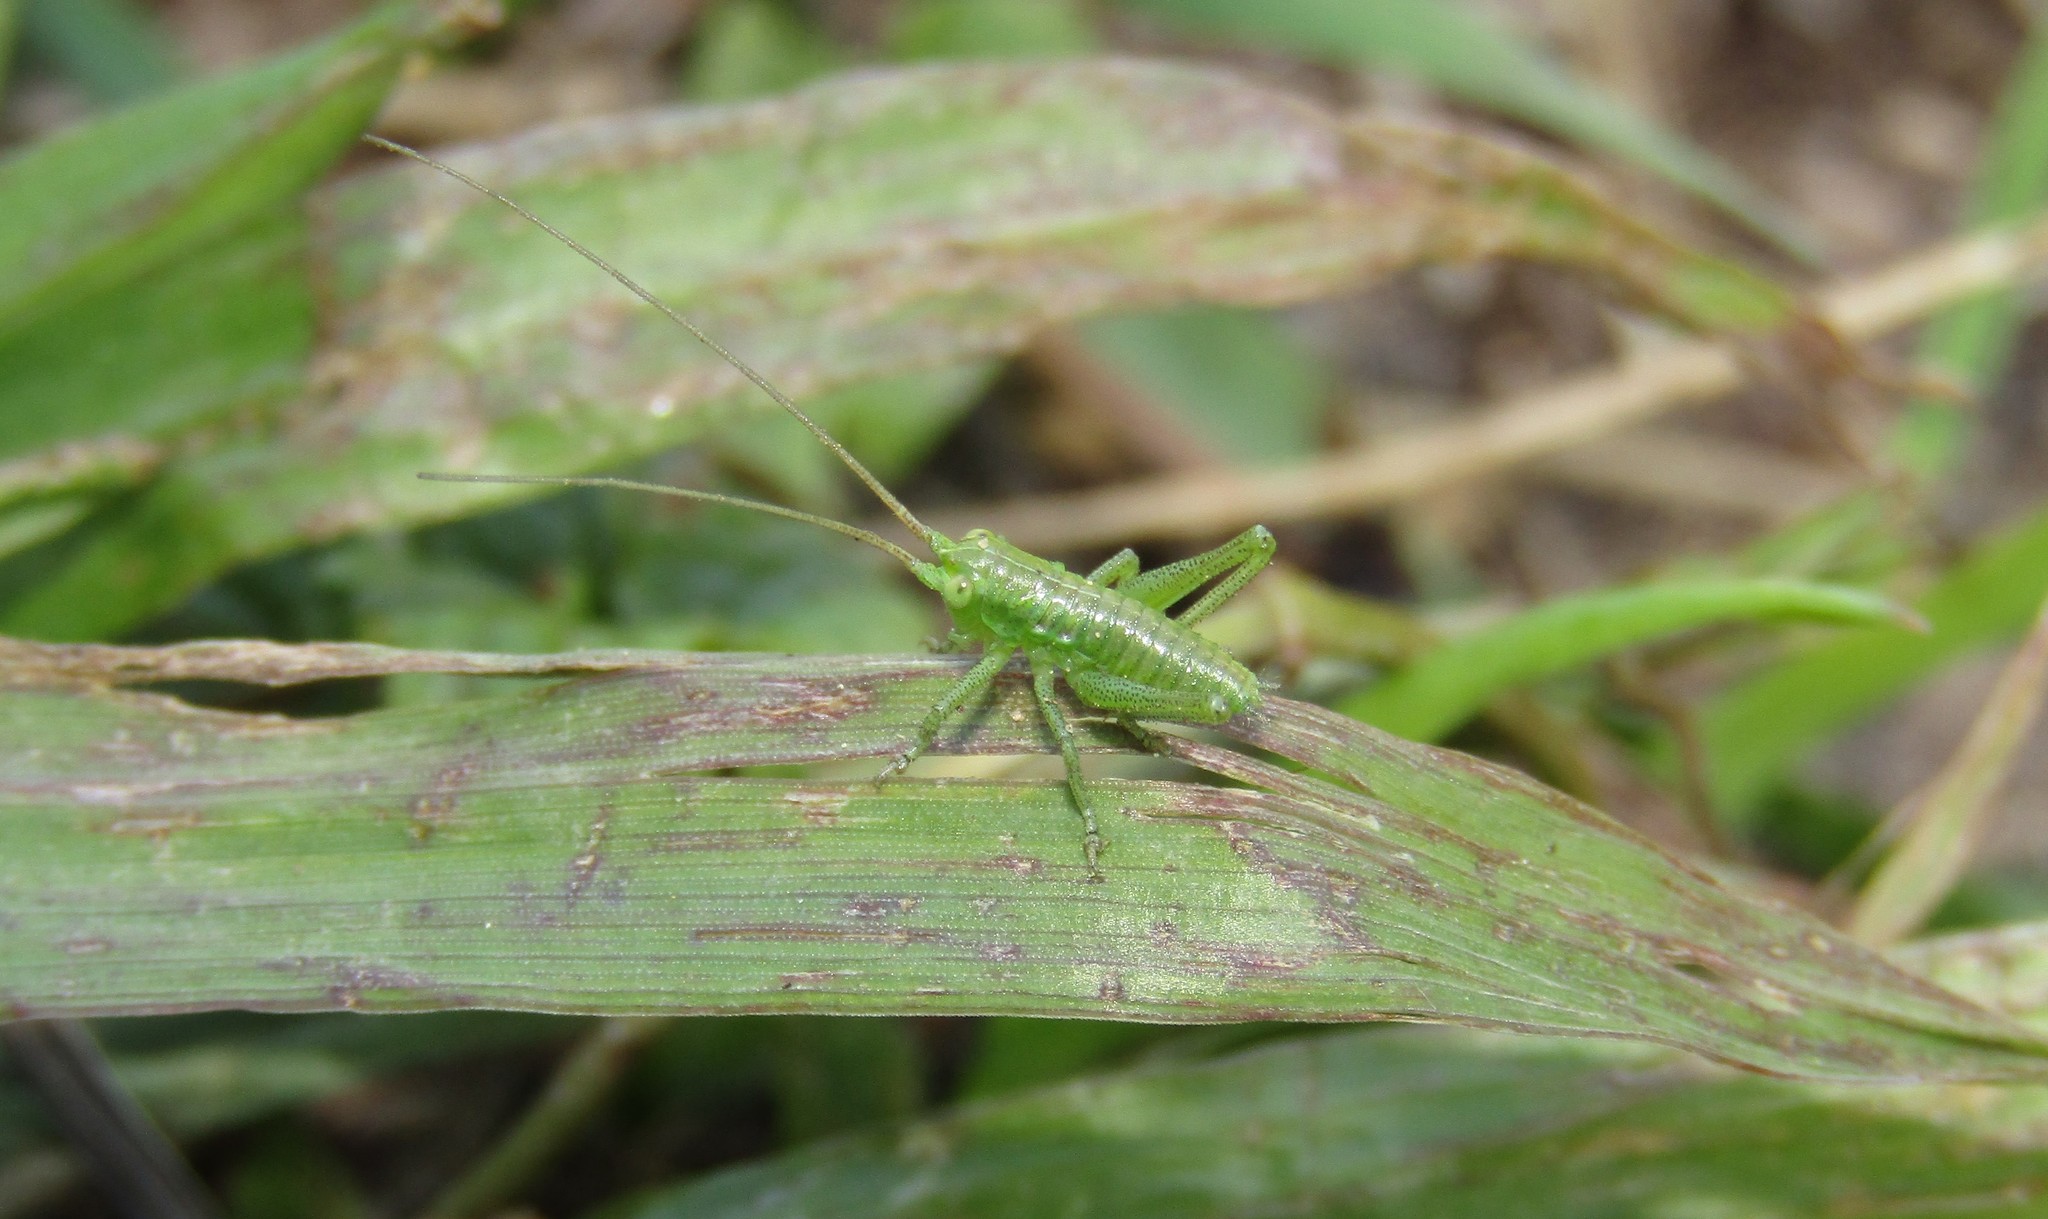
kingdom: Animalia
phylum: Arthropoda
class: Insecta
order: Orthoptera
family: Tettigoniidae
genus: Tettigonia
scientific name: Tettigonia
